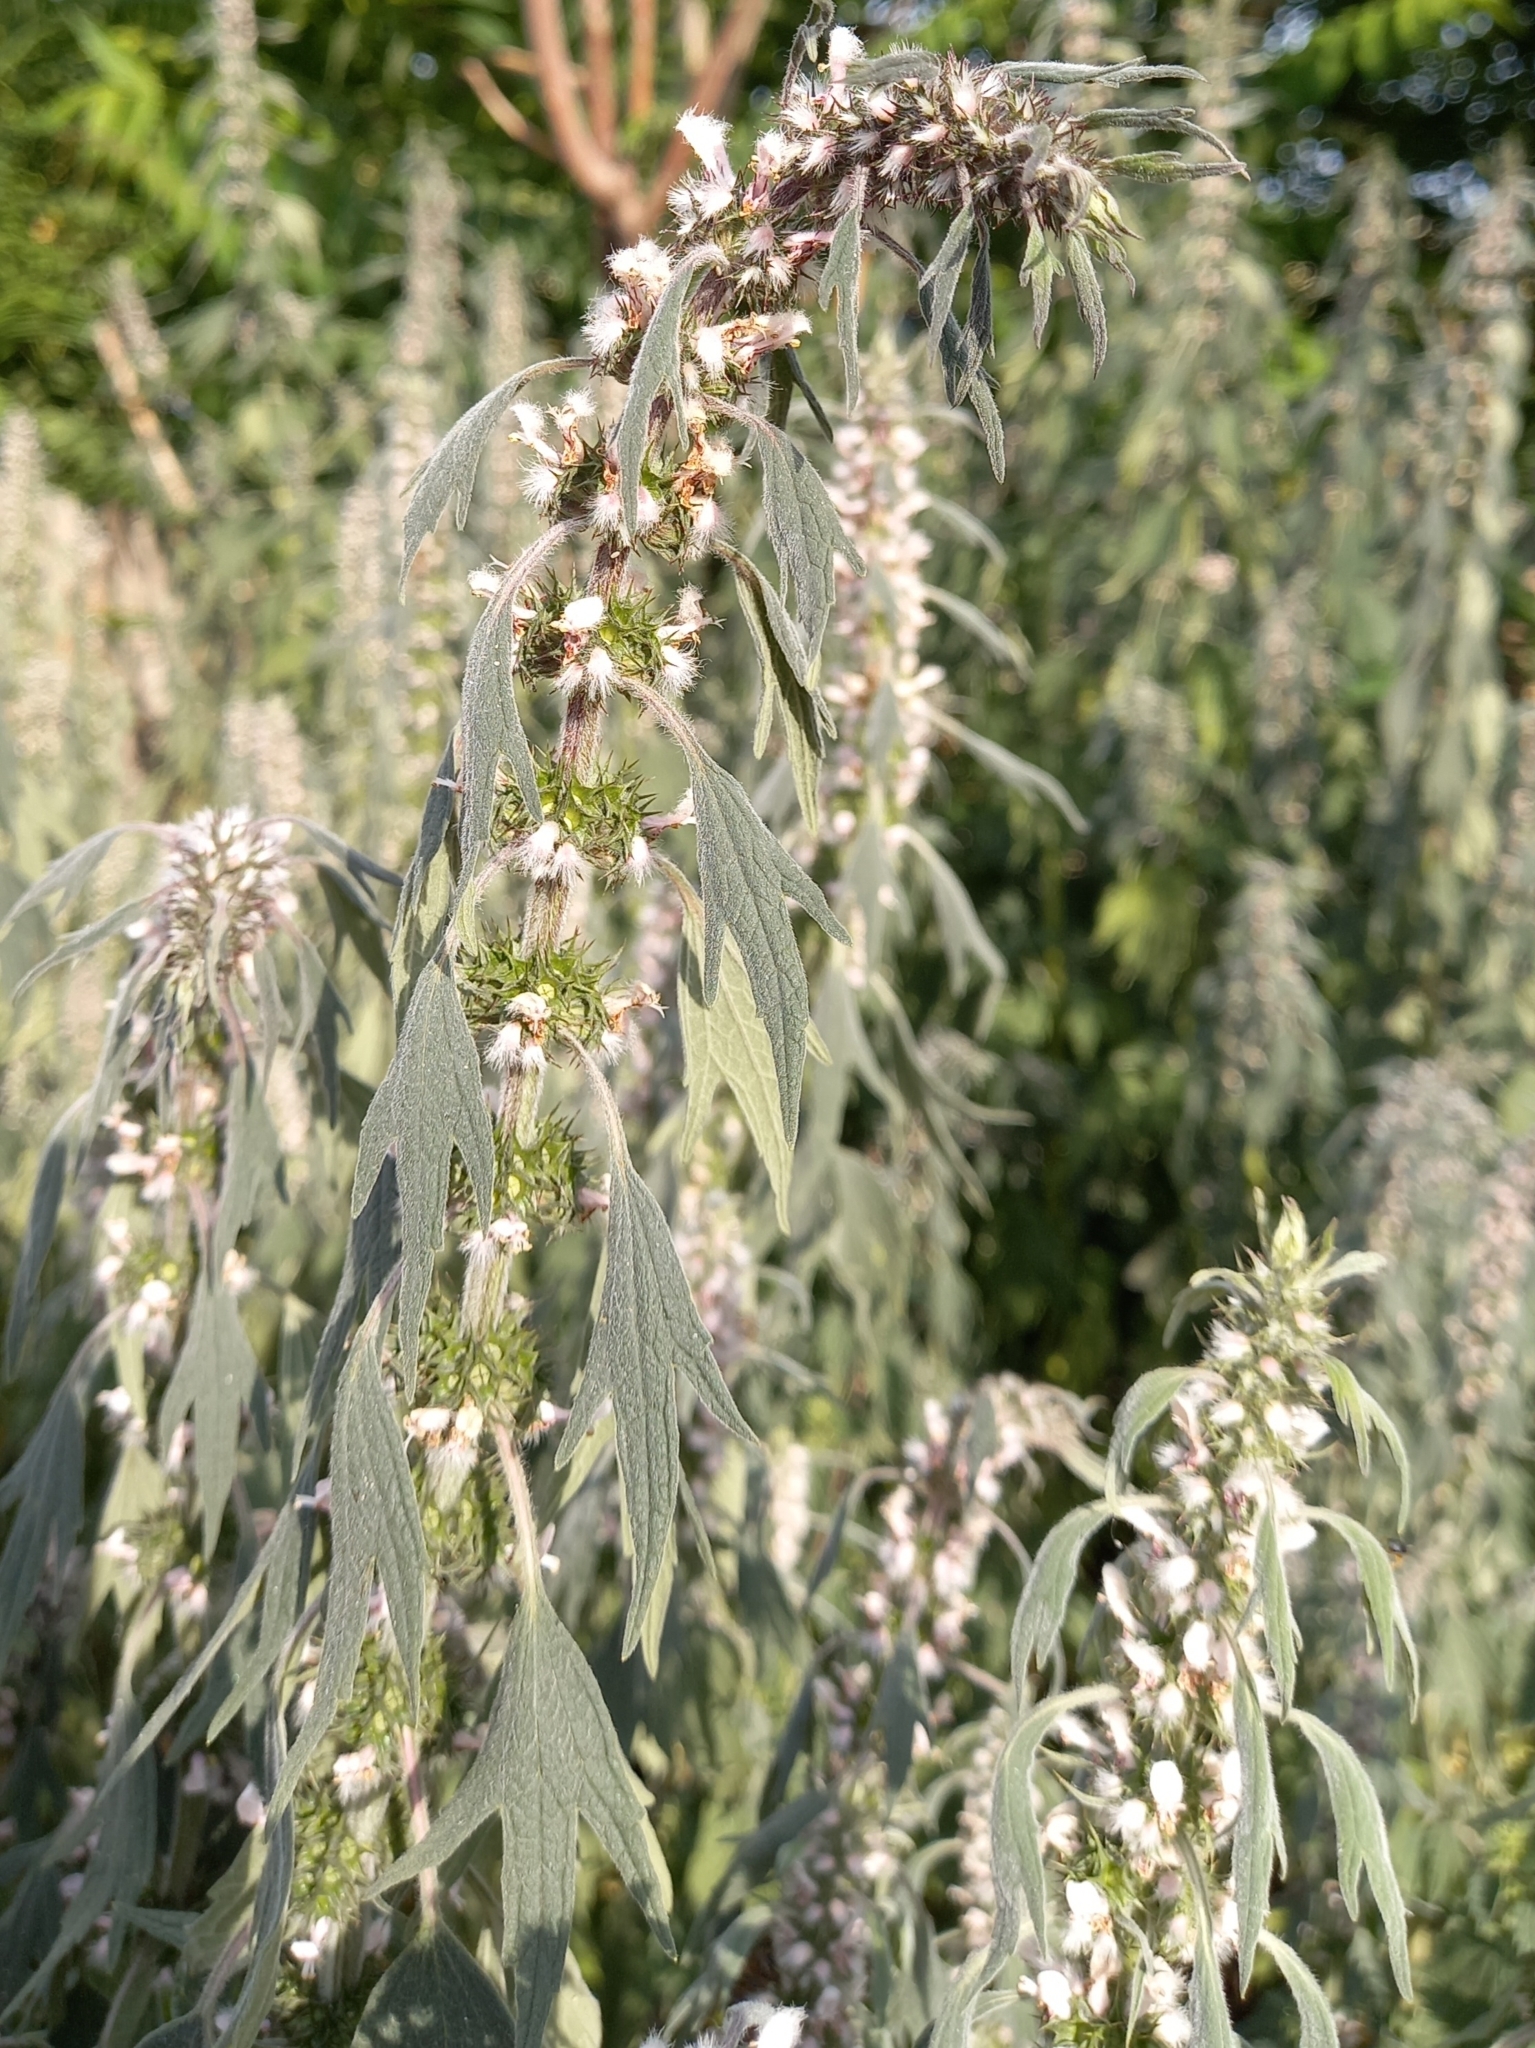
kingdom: Plantae
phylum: Tracheophyta
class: Magnoliopsida
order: Lamiales
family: Lamiaceae
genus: Leonurus
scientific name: Leonurus quinquelobatus
